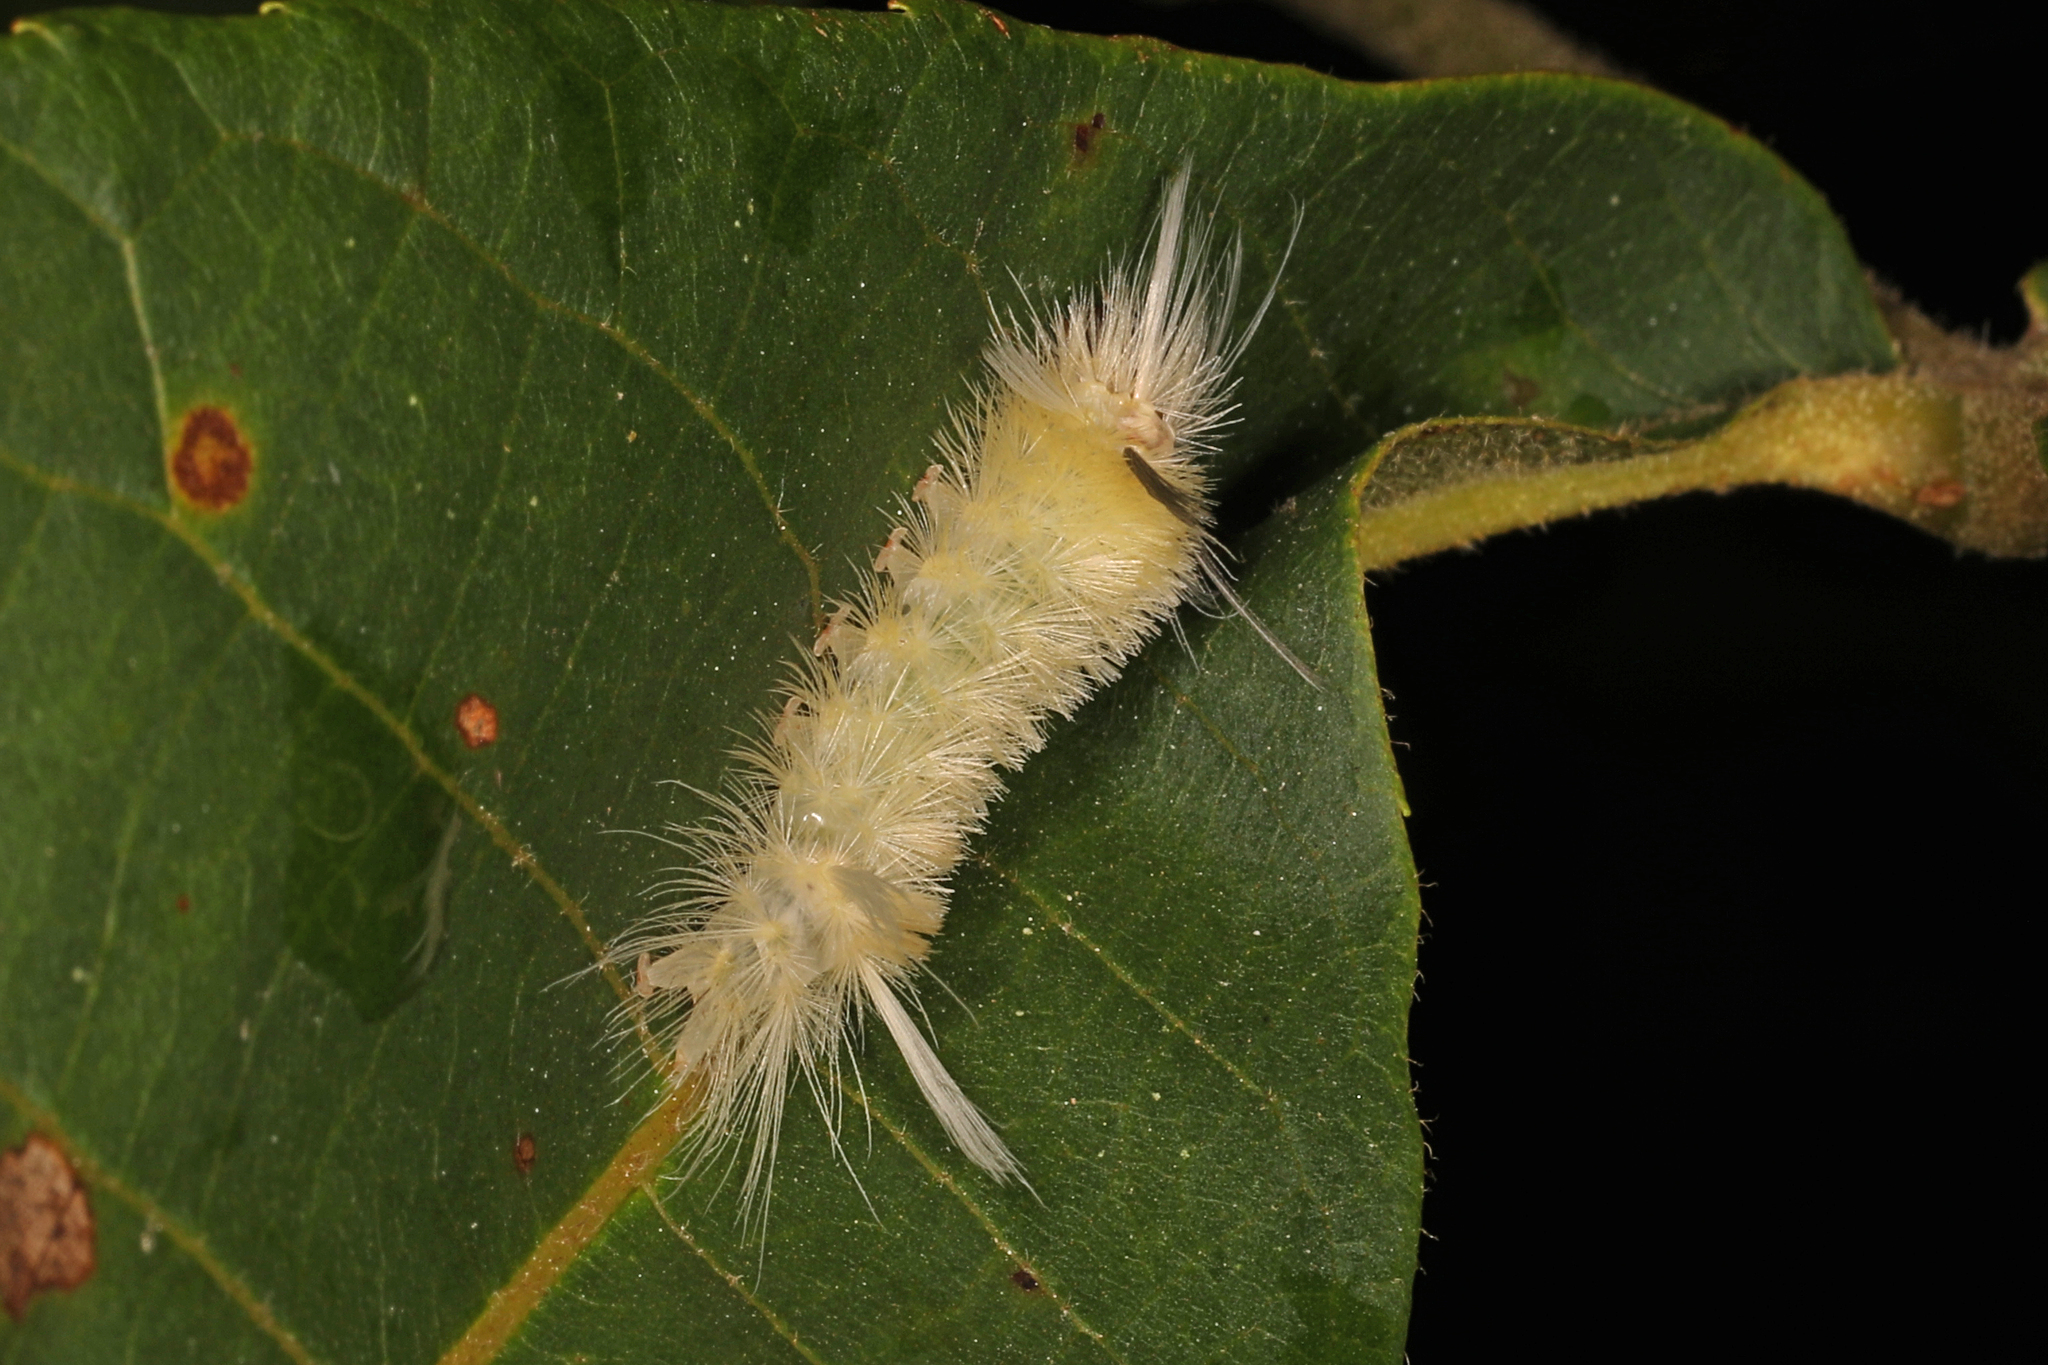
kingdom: Animalia
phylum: Arthropoda
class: Insecta
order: Lepidoptera
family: Erebidae
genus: Halysidota
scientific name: Halysidota tessellaris
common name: Banded tussock moth
